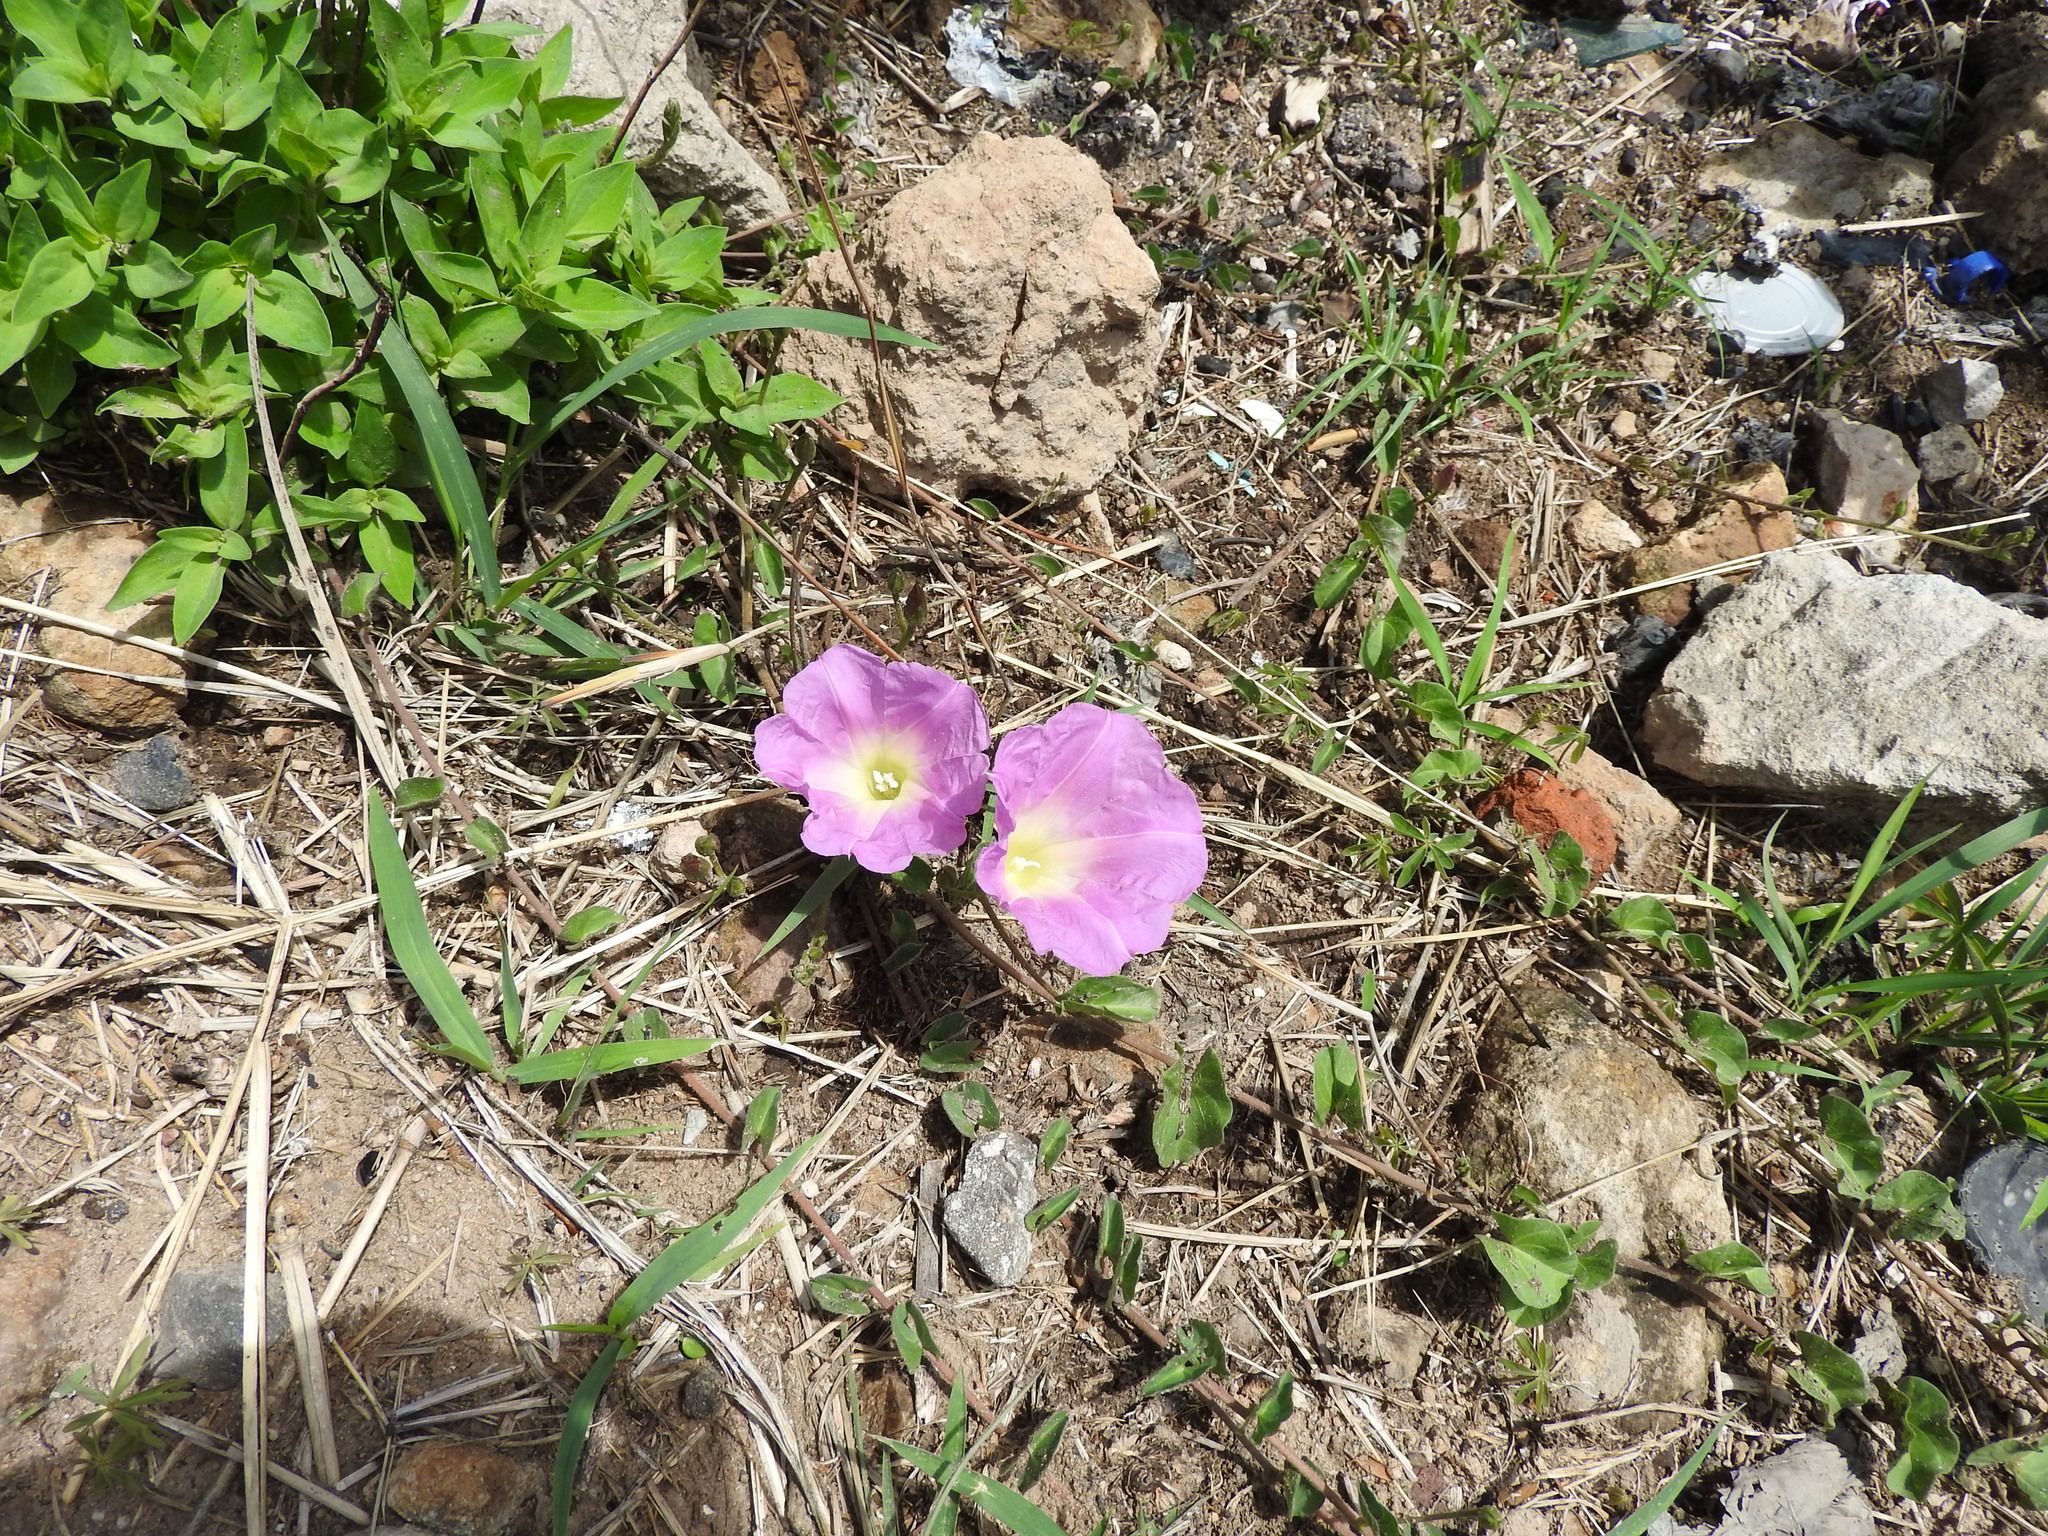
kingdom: Plantae
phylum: Tracheophyta
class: Magnoliopsida
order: Solanales
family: Convolvulaceae
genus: Ipomoea
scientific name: Ipomoea hartwegii
